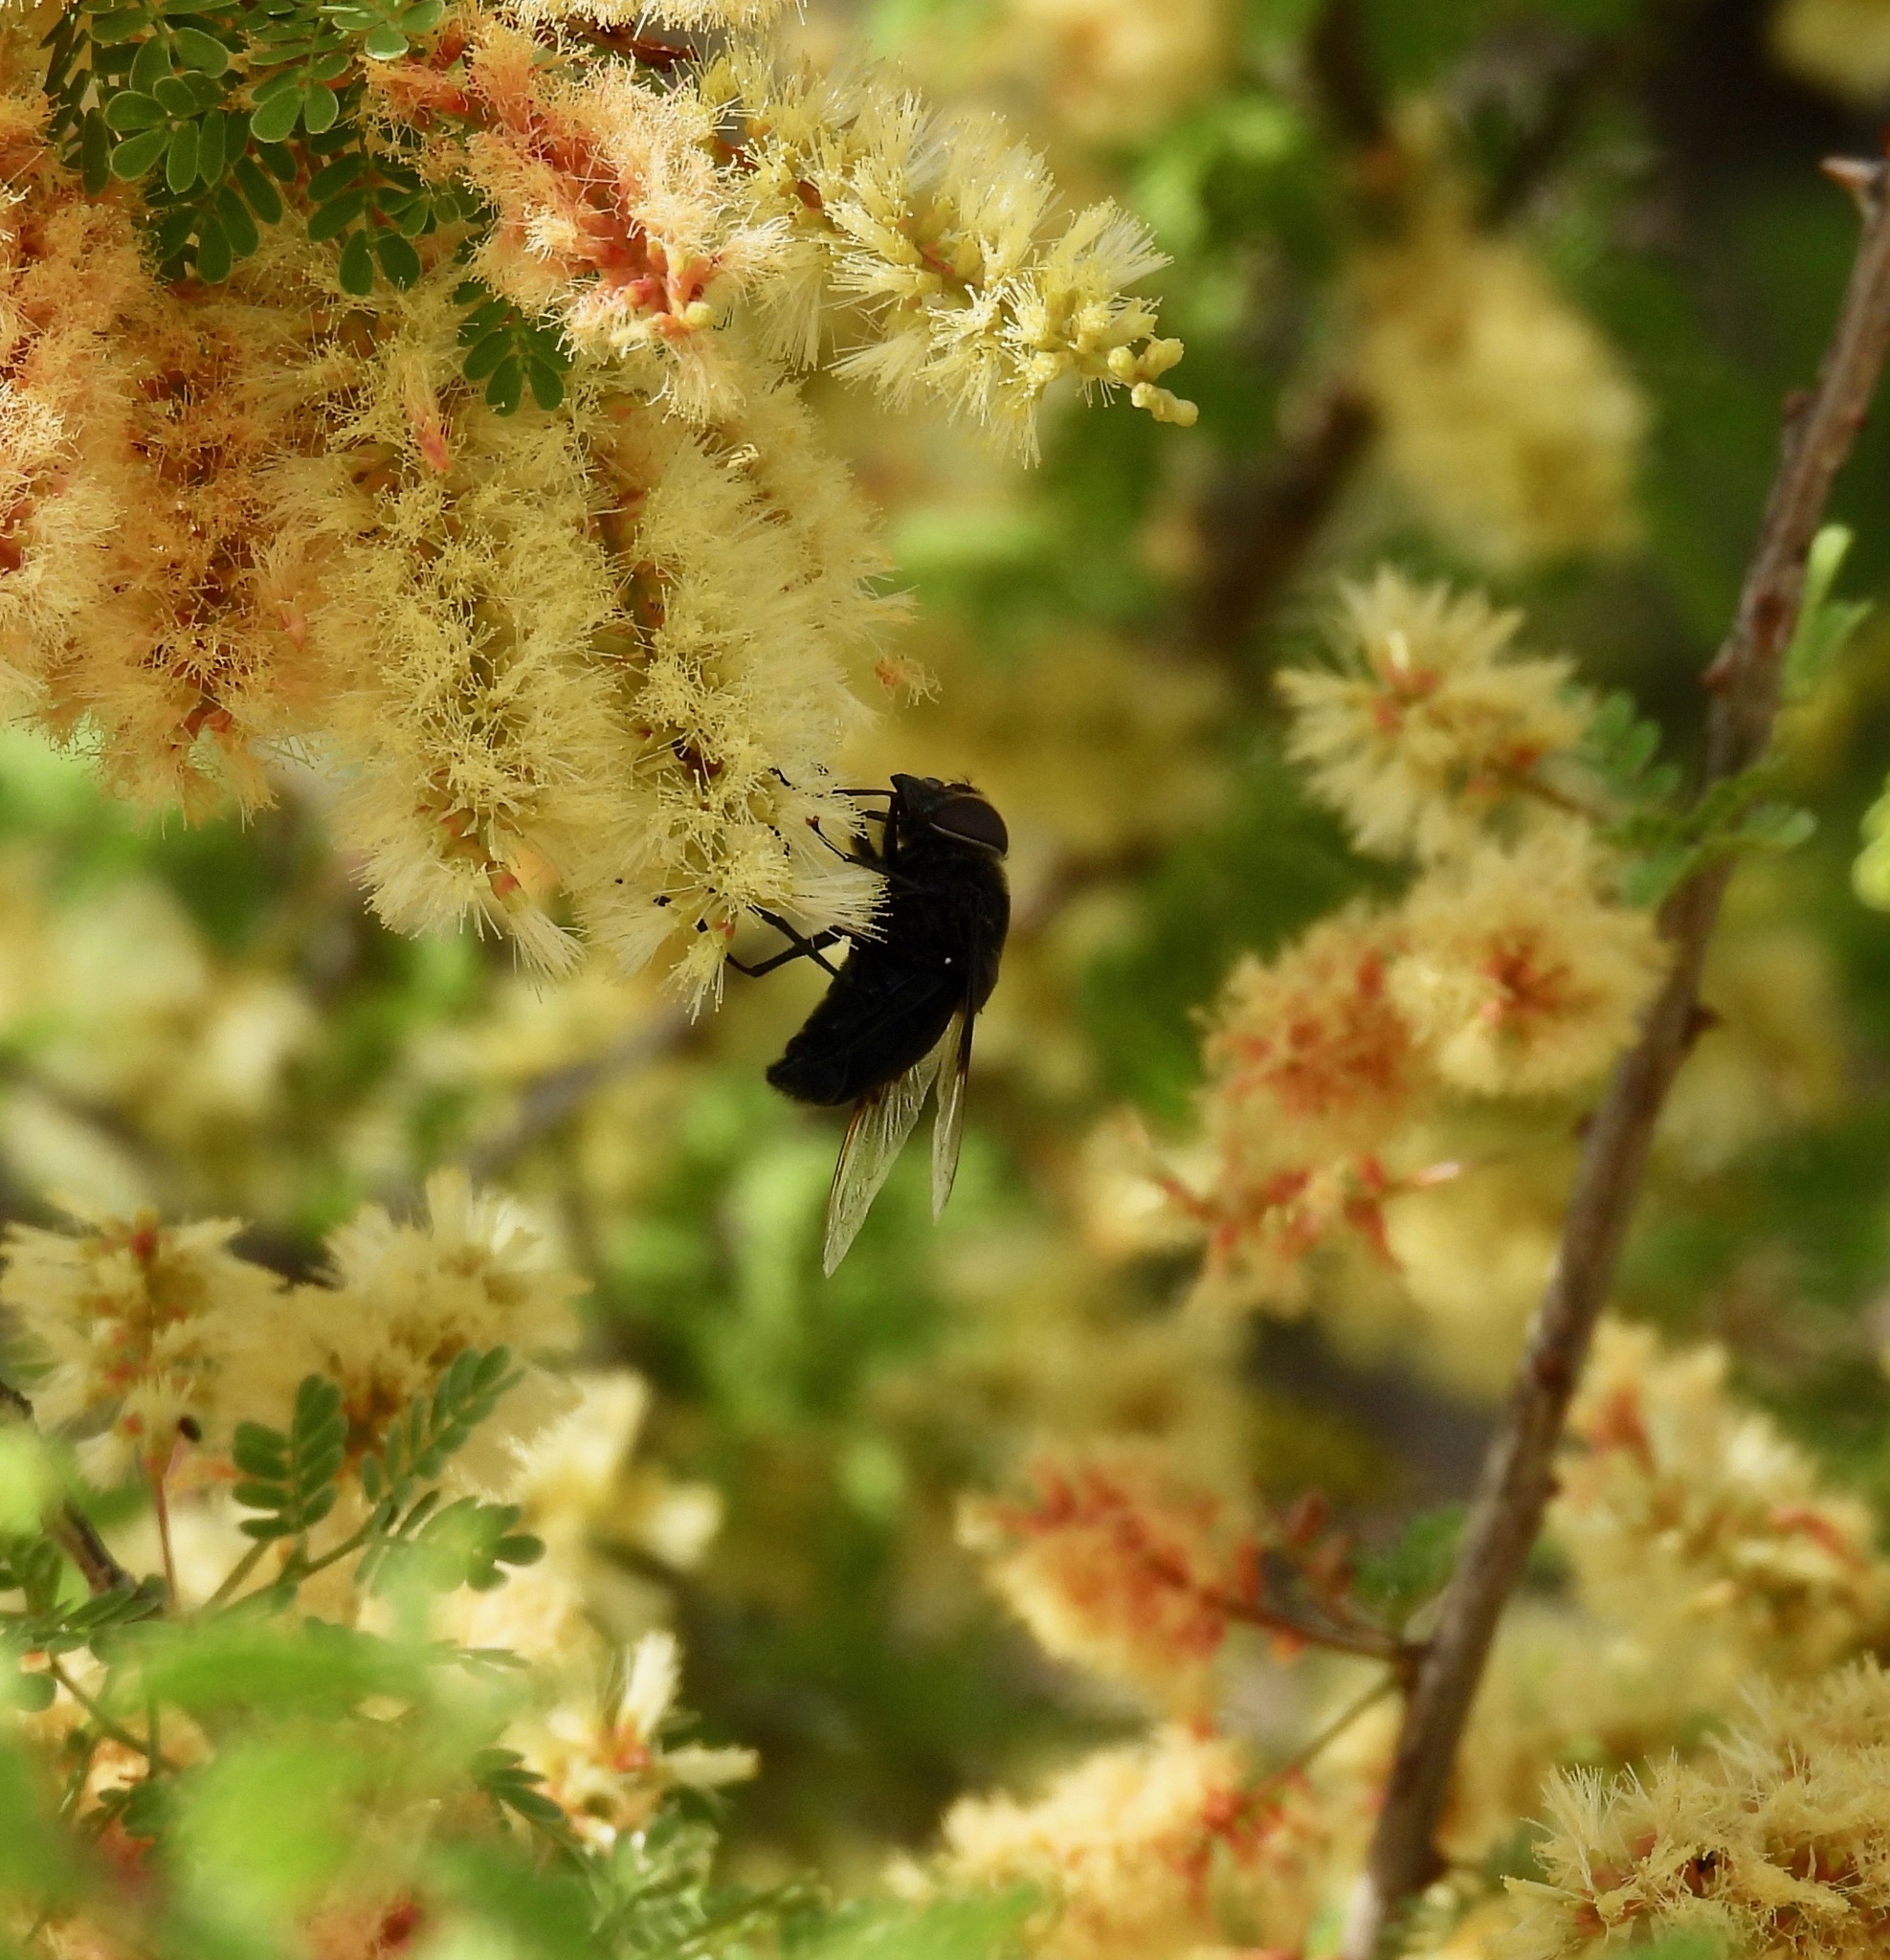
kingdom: Animalia
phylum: Arthropoda
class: Insecta
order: Diptera
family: Syrphidae
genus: Copestylum
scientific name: Copestylum mexicanum
